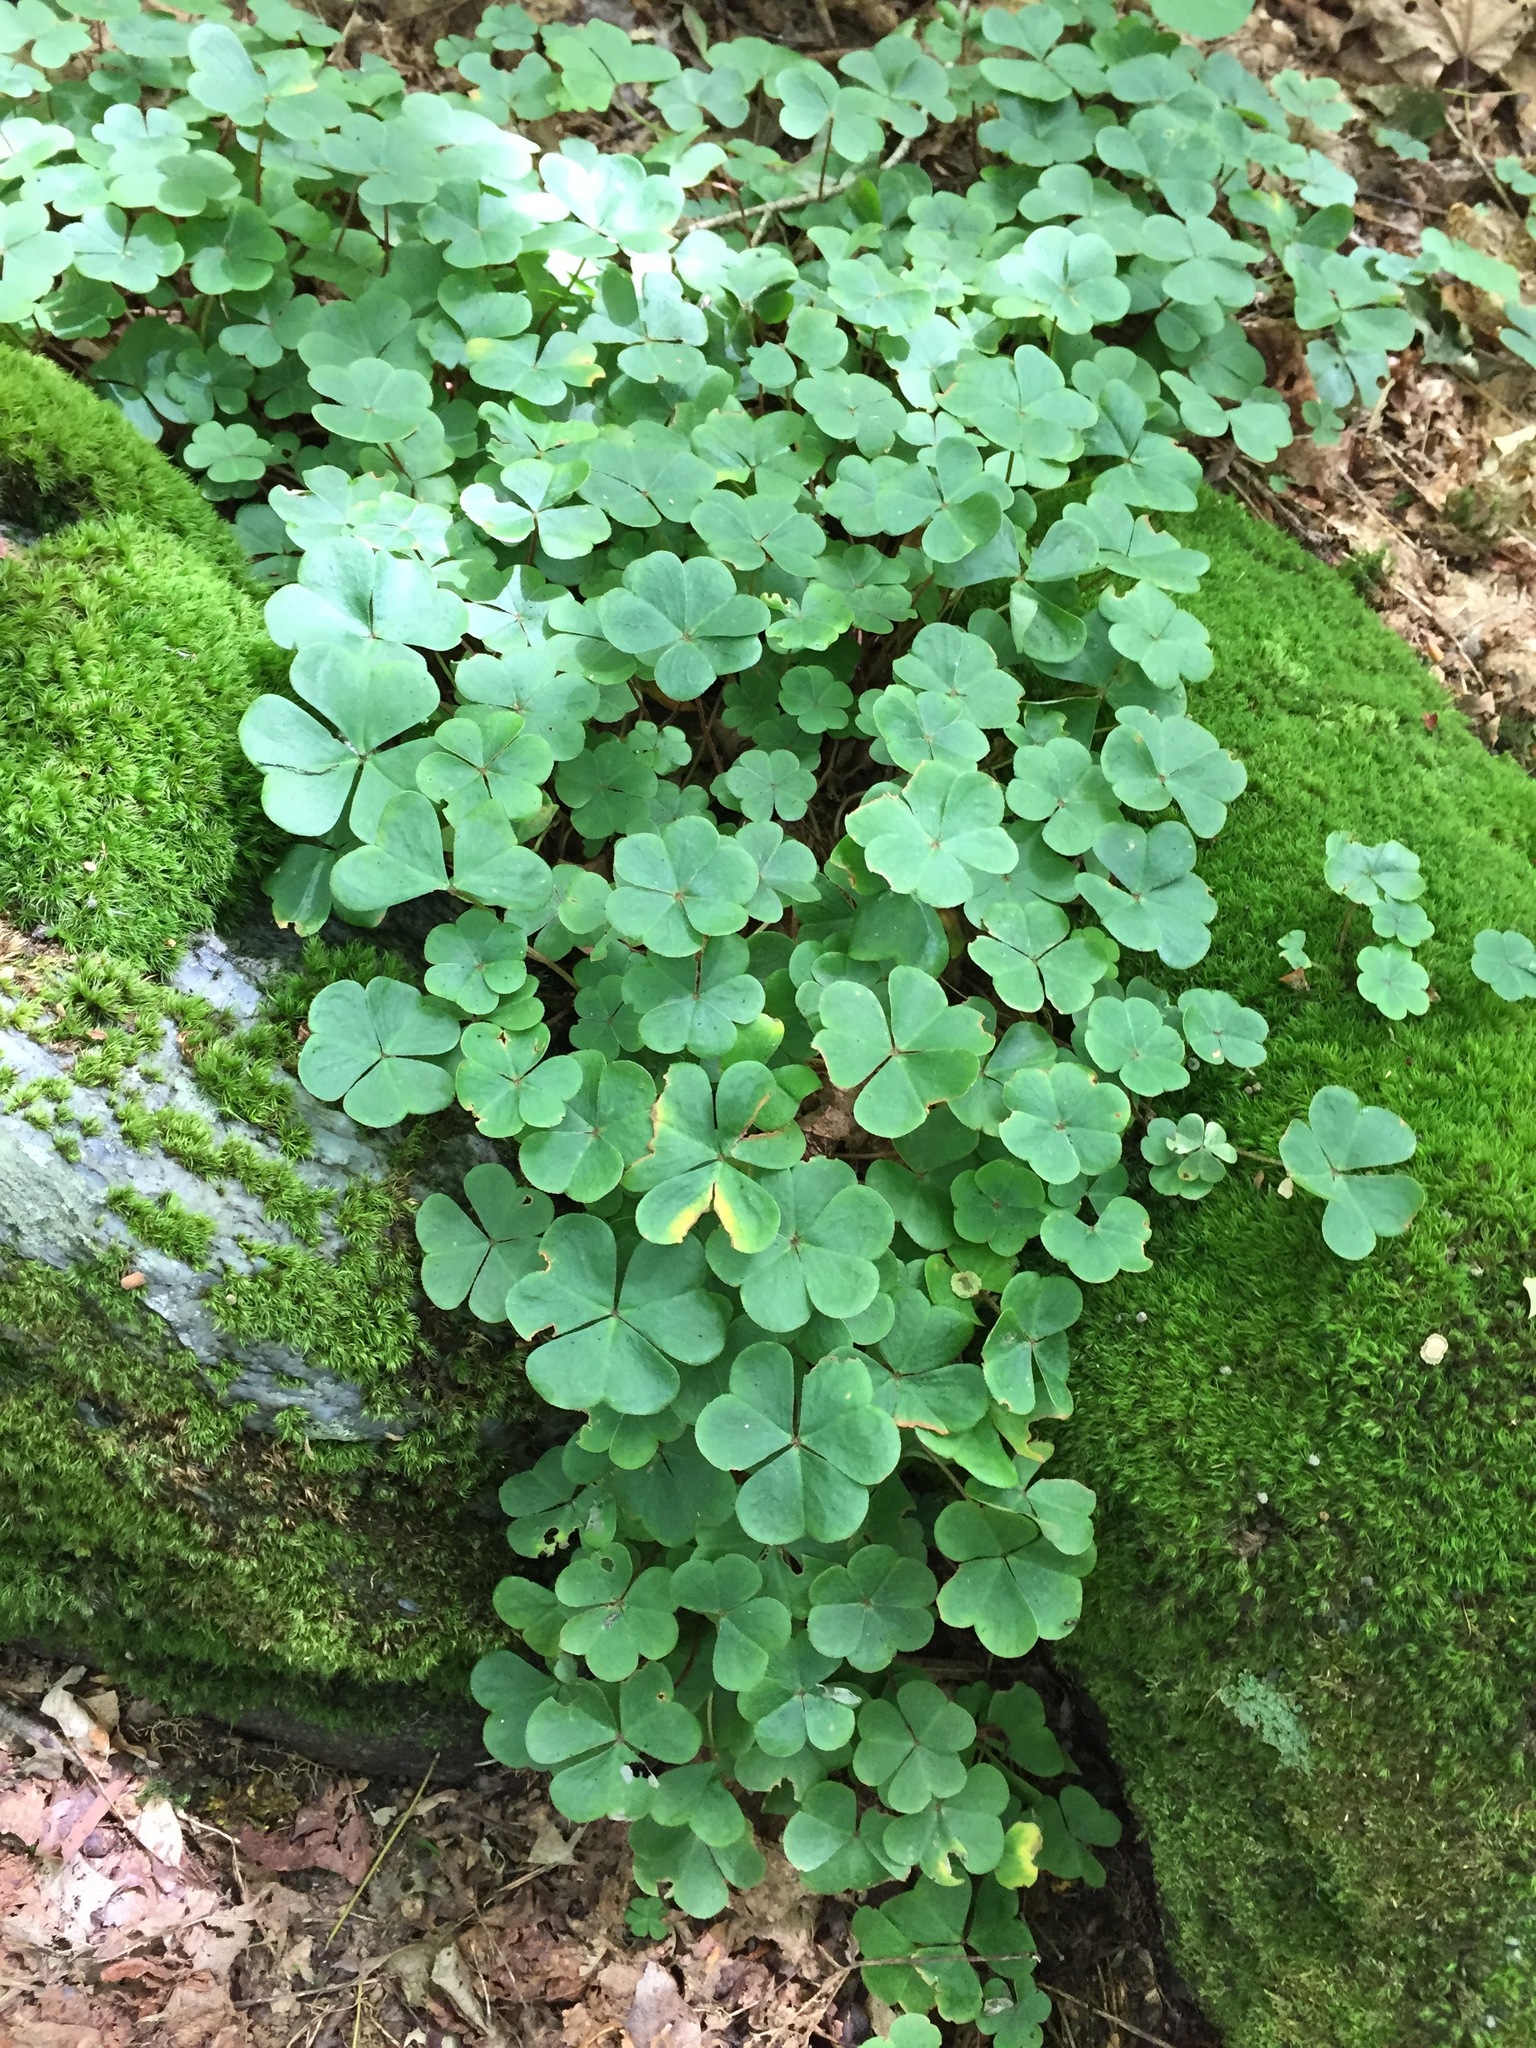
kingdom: Plantae
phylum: Tracheophyta
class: Magnoliopsida
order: Oxalidales
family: Oxalidaceae
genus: Oxalis
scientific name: Oxalis montana
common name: American wood-sorrel
